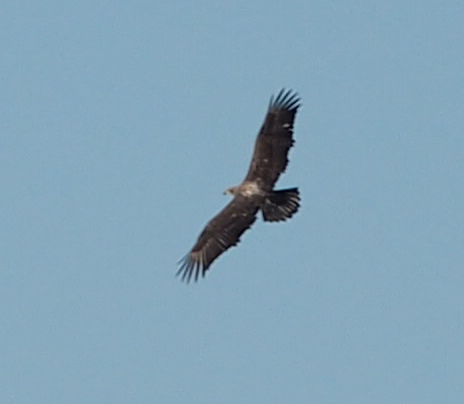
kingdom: Animalia
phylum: Chordata
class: Aves
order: Accipitriformes
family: Accipitridae
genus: Haliaeetus
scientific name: Haliaeetus leucocephalus
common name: Bald eagle
